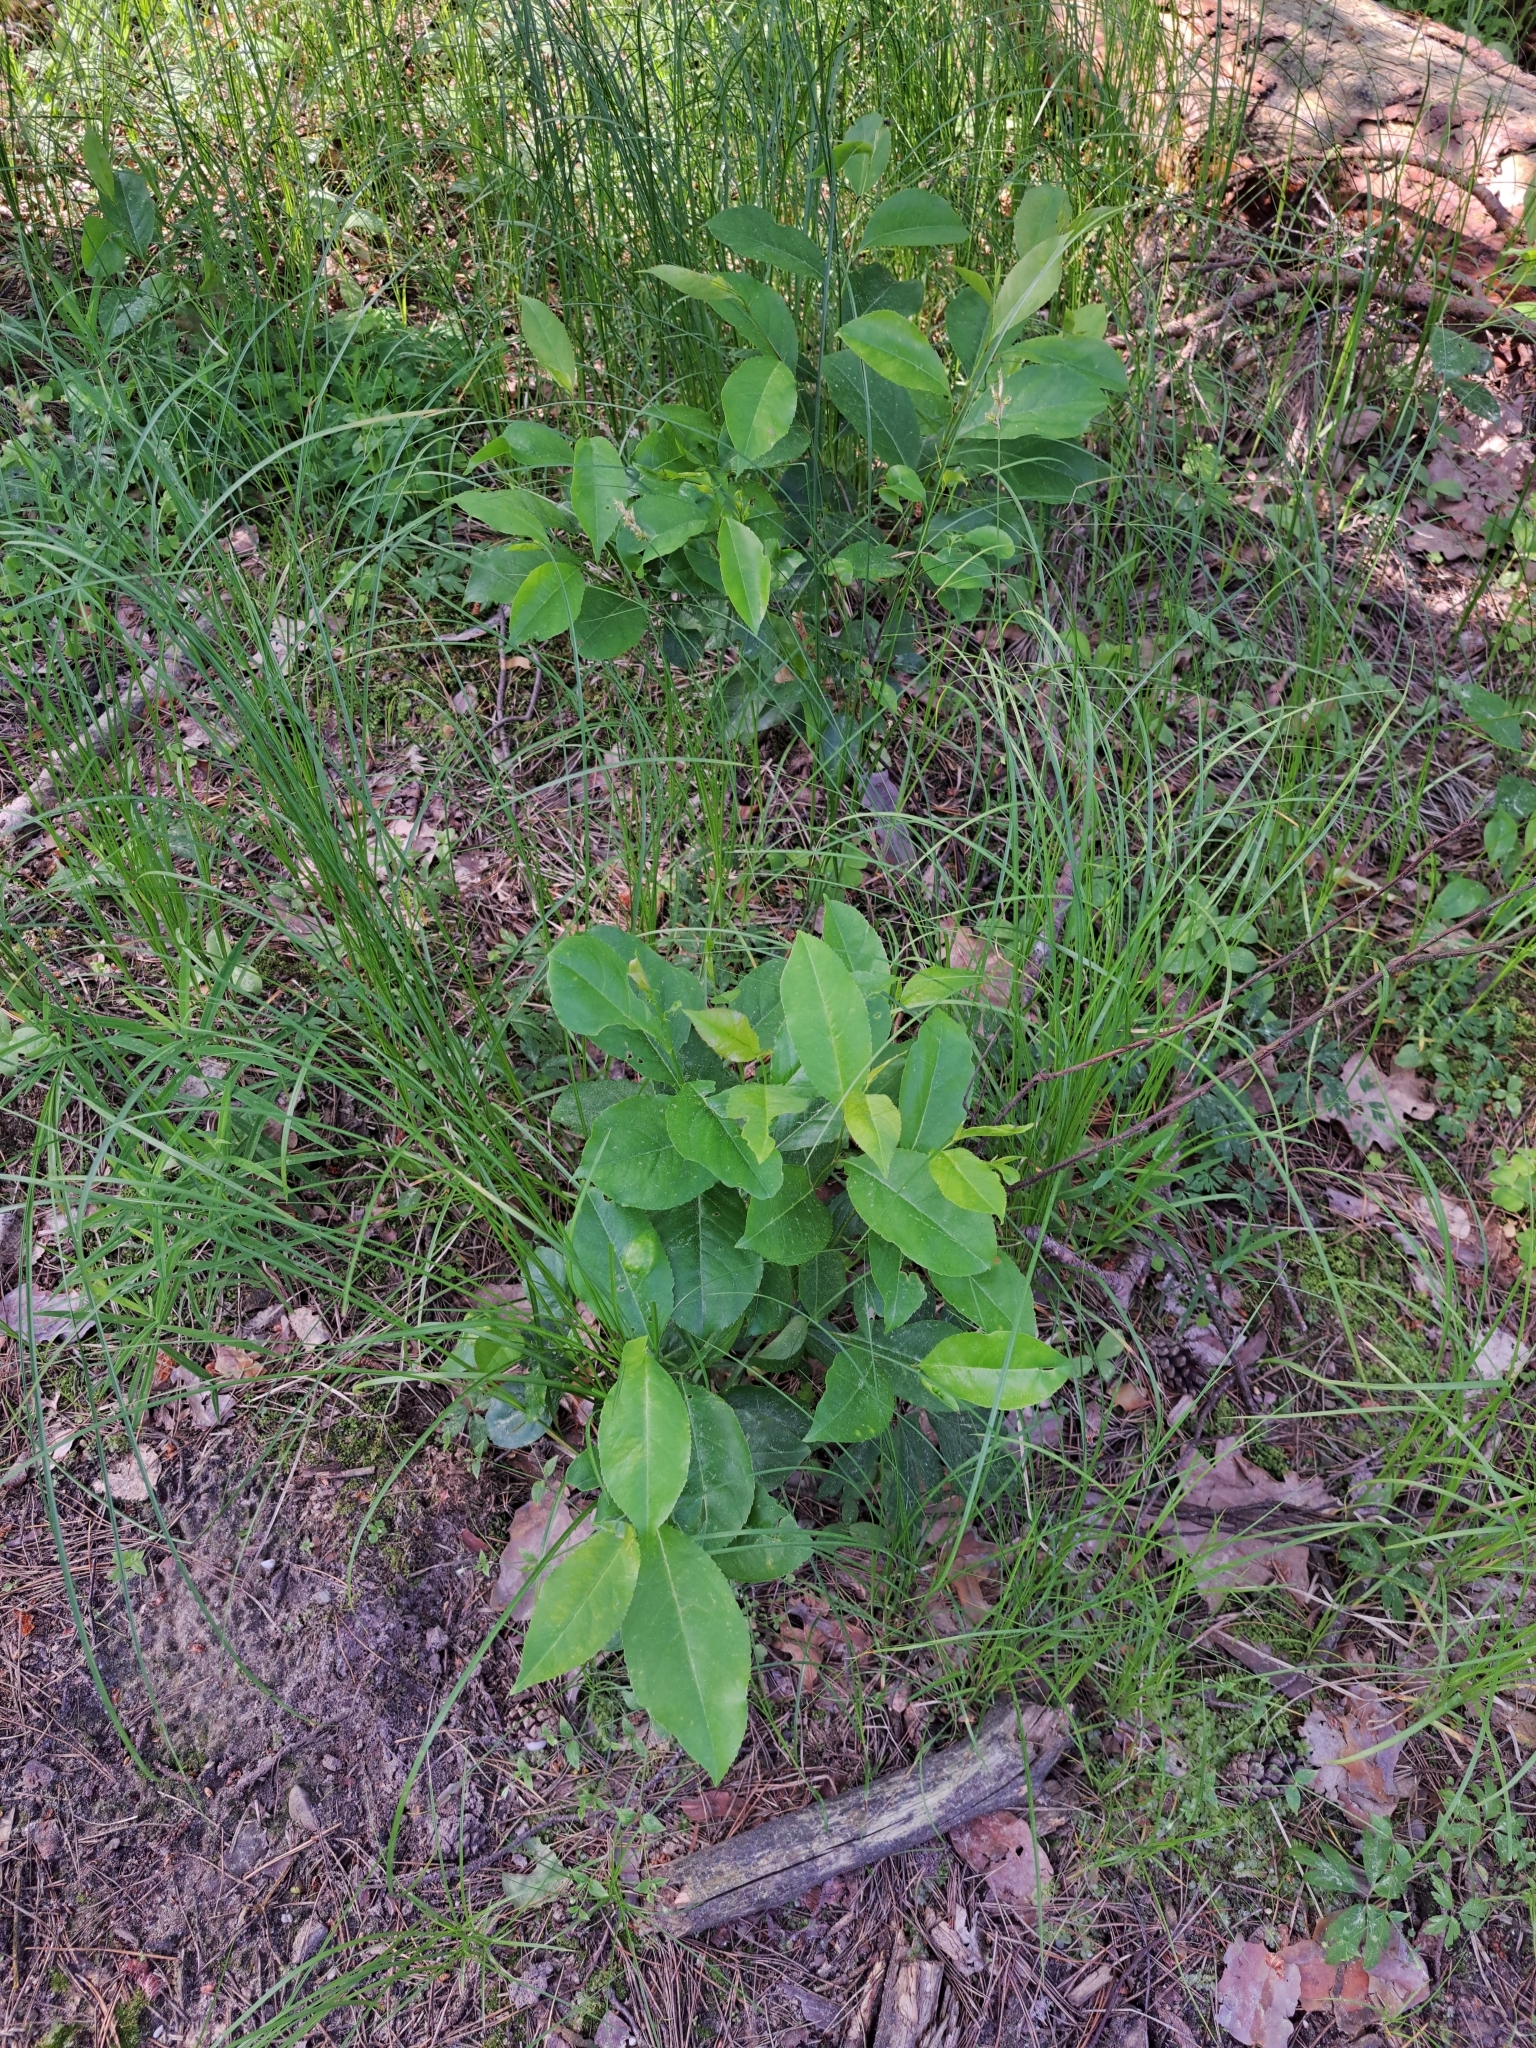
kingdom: Plantae
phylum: Tracheophyta
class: Magnoliopsida
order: Rosales
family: Rosaceae
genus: Prunus
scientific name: Prunus serotina
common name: Black cherry
